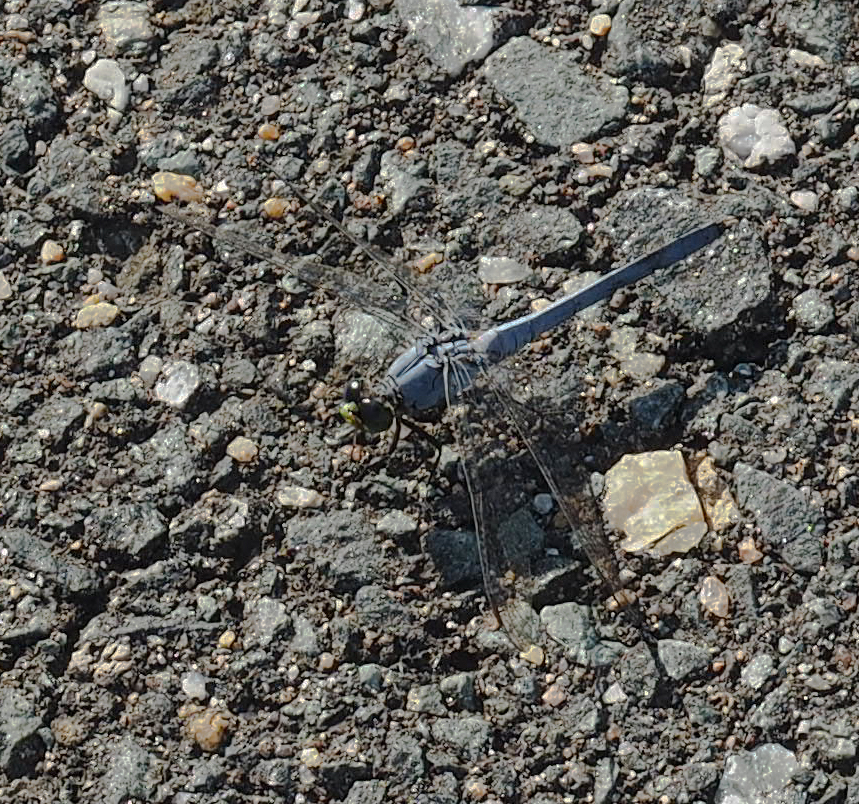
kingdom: Animalia
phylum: Arthropoda
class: Insecta
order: Odonata
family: Libellulidae
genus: Erythemis
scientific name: Erythemis simplicicollis
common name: Eastern pondhawk
